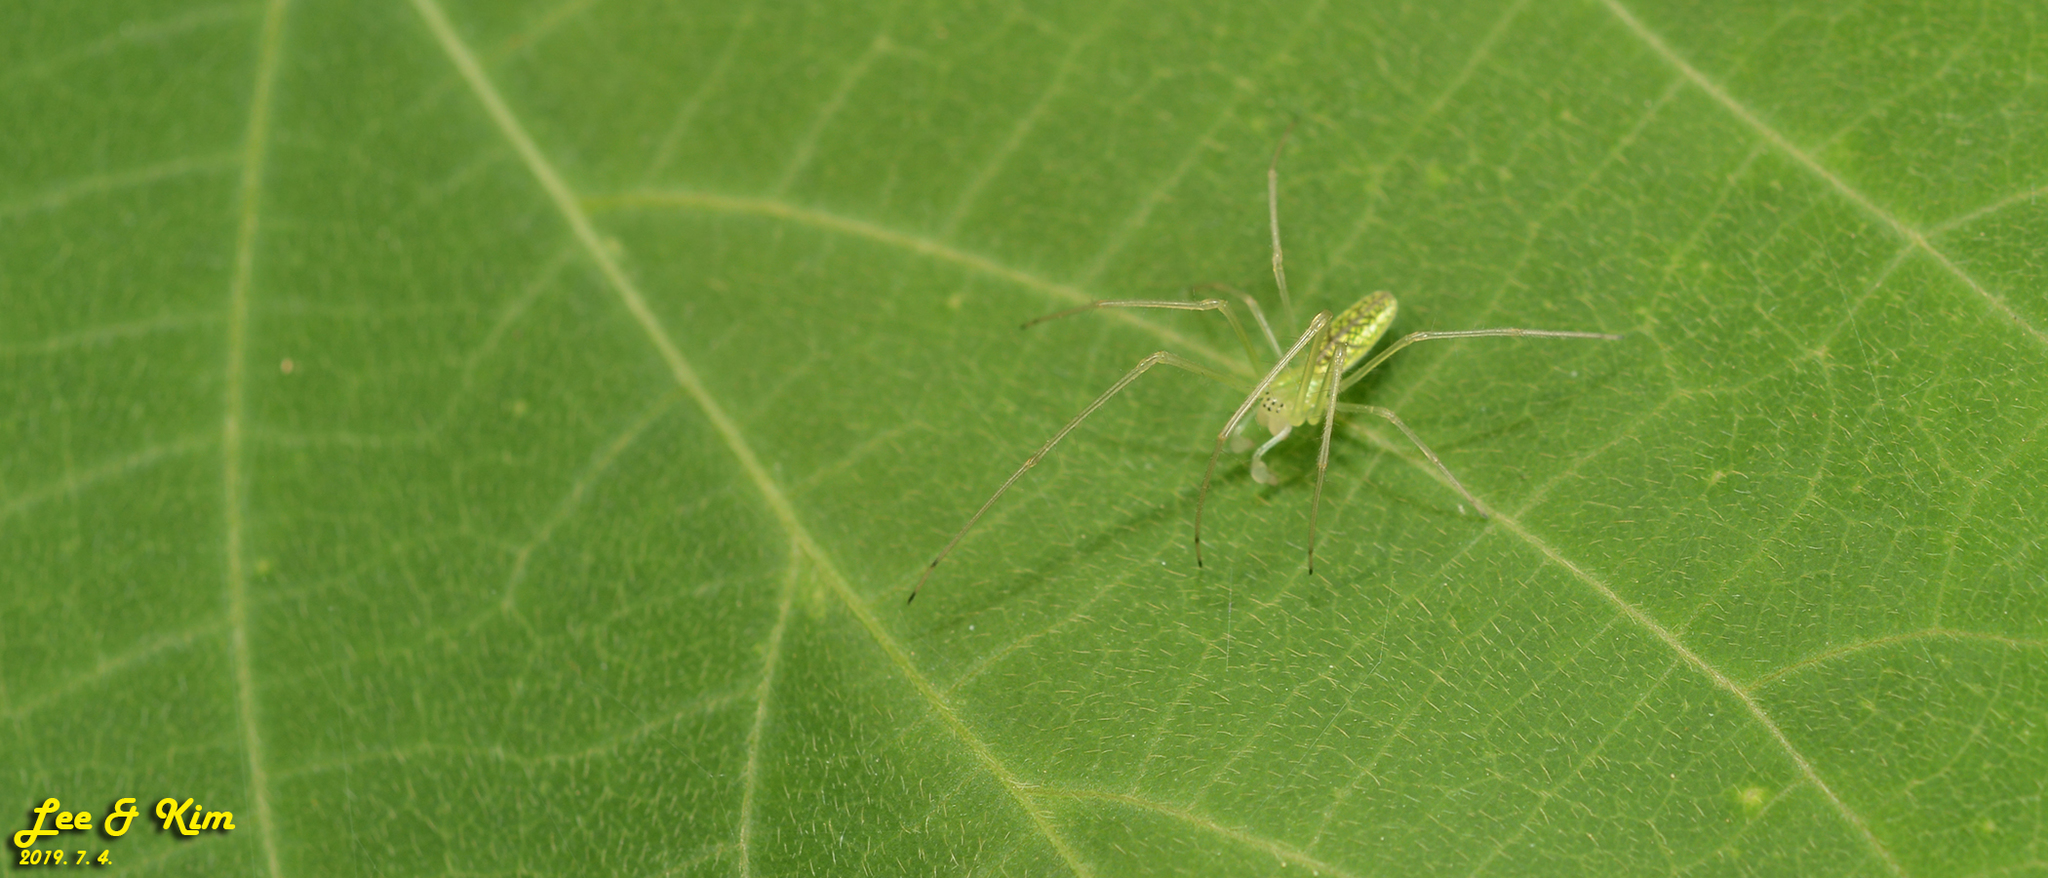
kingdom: Animalia
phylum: Arthropoda
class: Arachnida
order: Araneae
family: Tetragnathidae
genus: Tetragnatha
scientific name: Tetragnatha yesoensis
